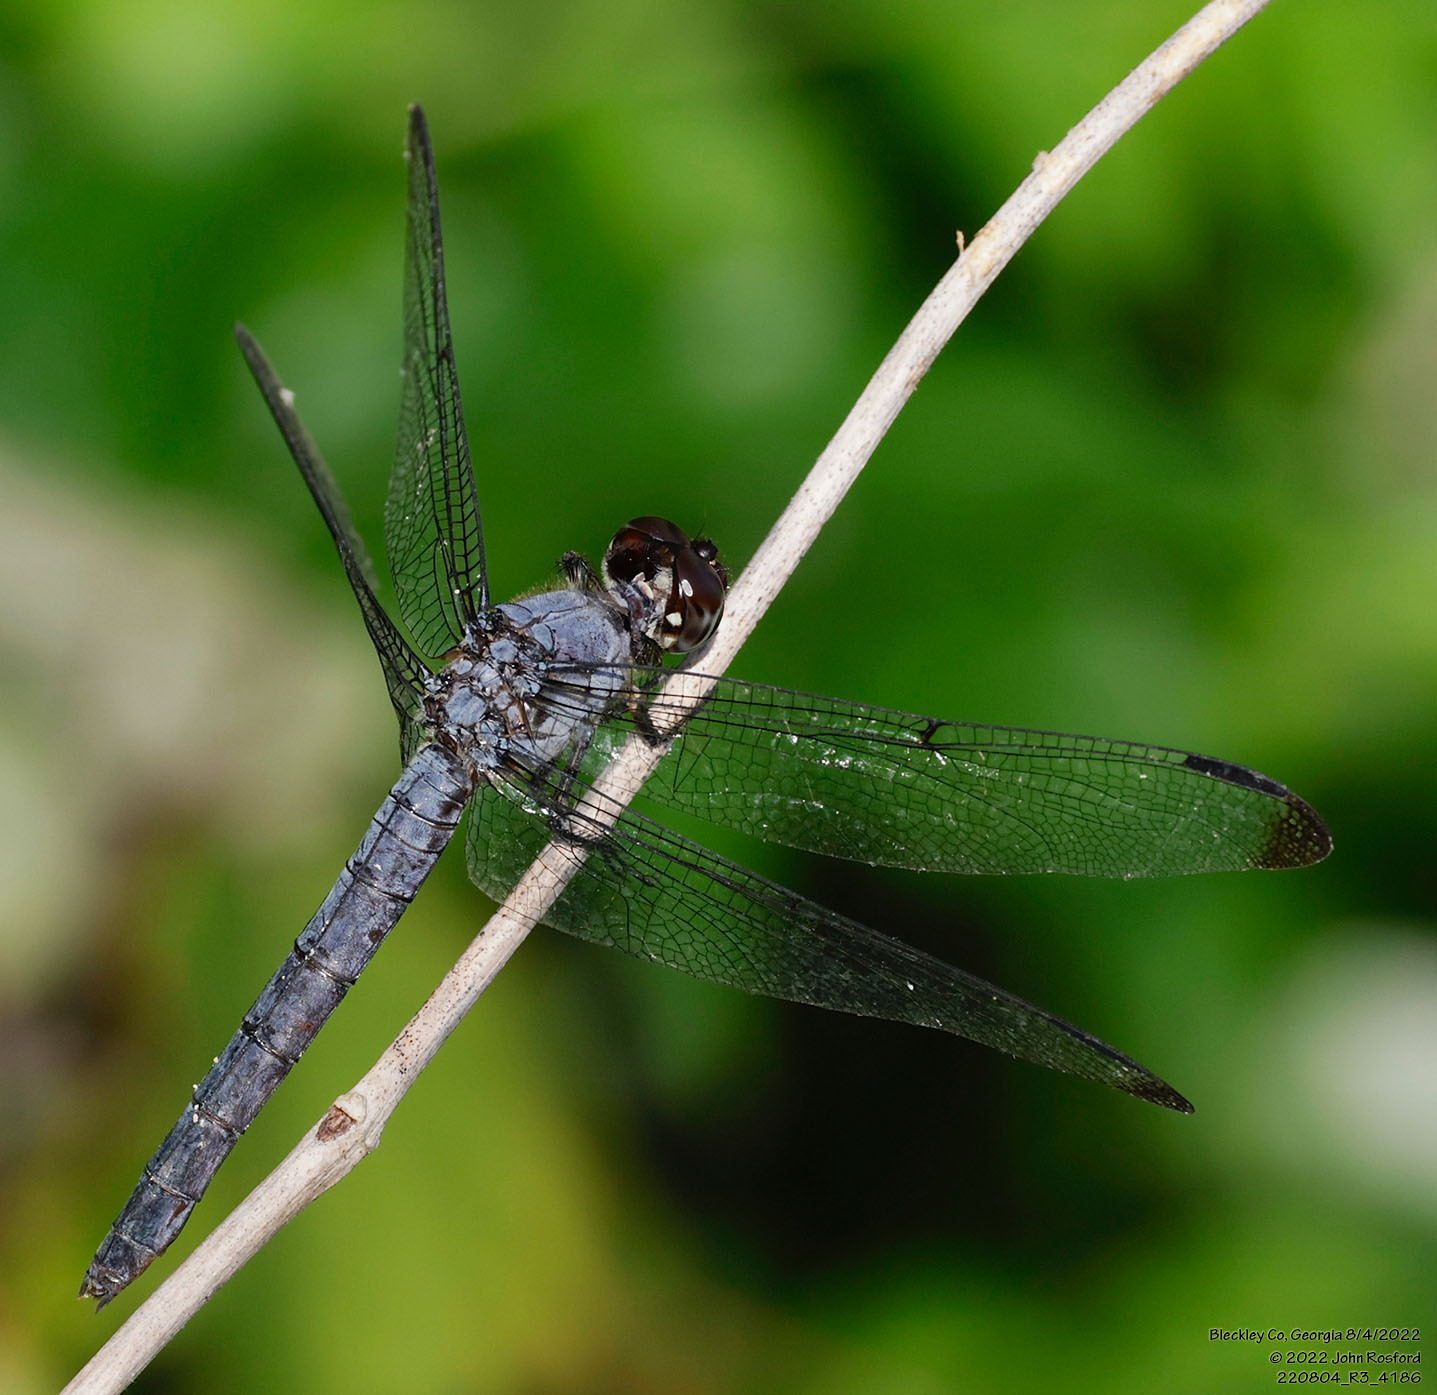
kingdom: Animalia
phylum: Arthropoda
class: Insecta
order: Odonata
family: Libellulidae
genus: Libellula
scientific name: Libellula incesta
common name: Slaty skimmer
